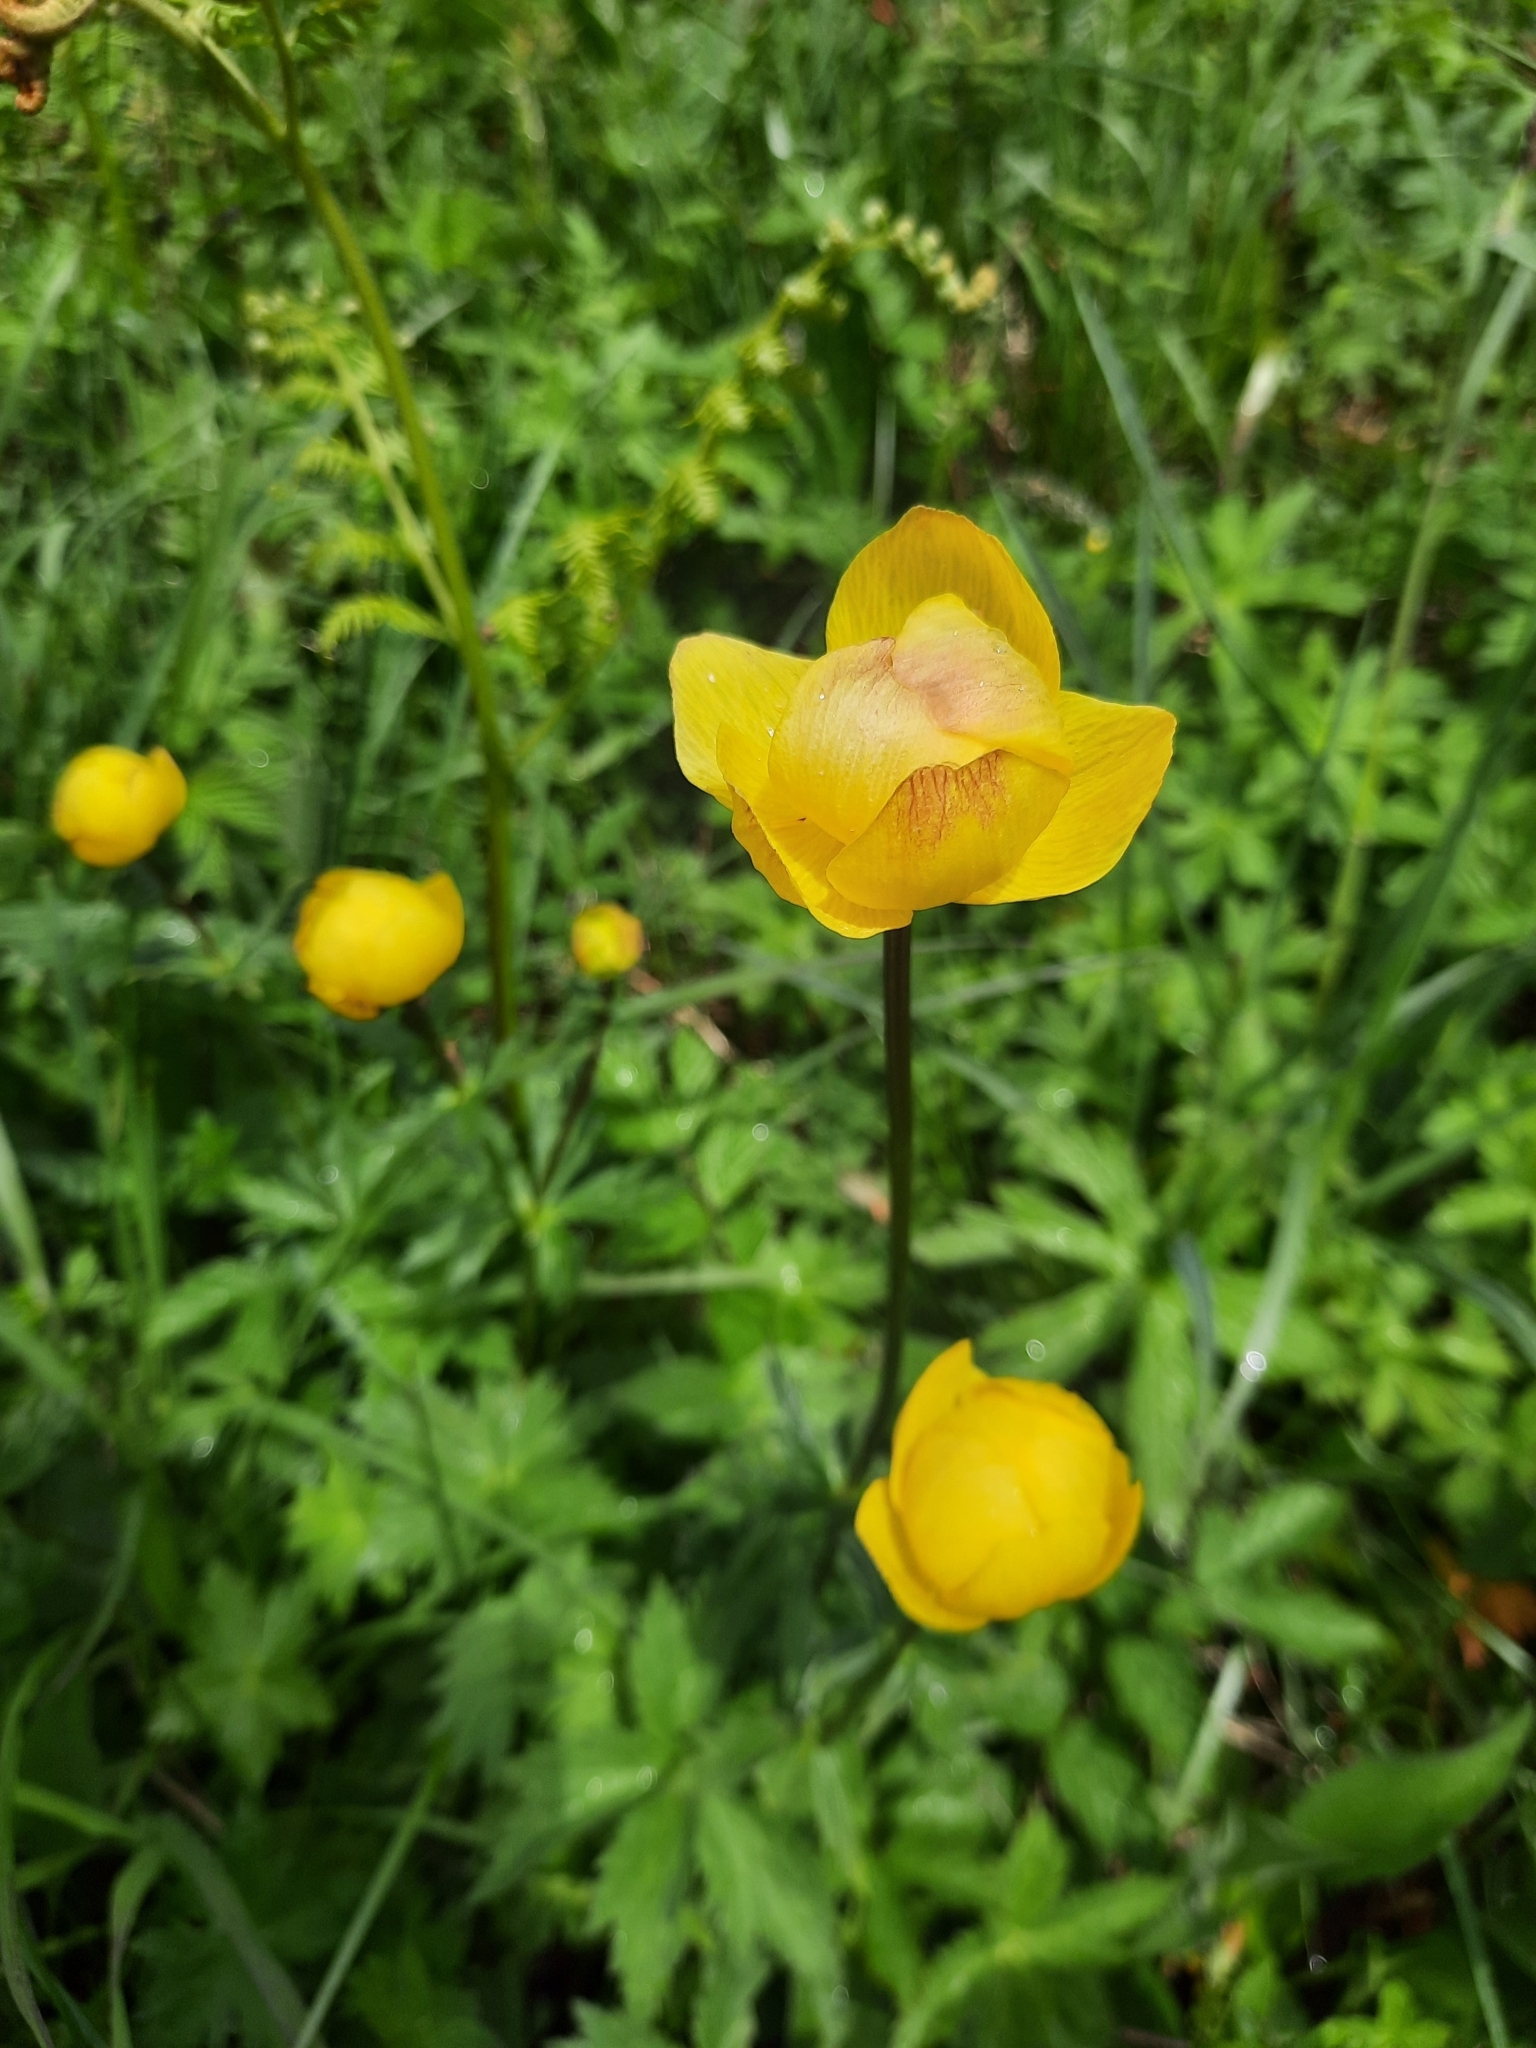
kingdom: Plantae
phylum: Tracheophyta
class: Magnoliopsida
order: Ranunculales
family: Ranunculaceae
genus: Trollius
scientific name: Trollius europaeus
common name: European globeflower
